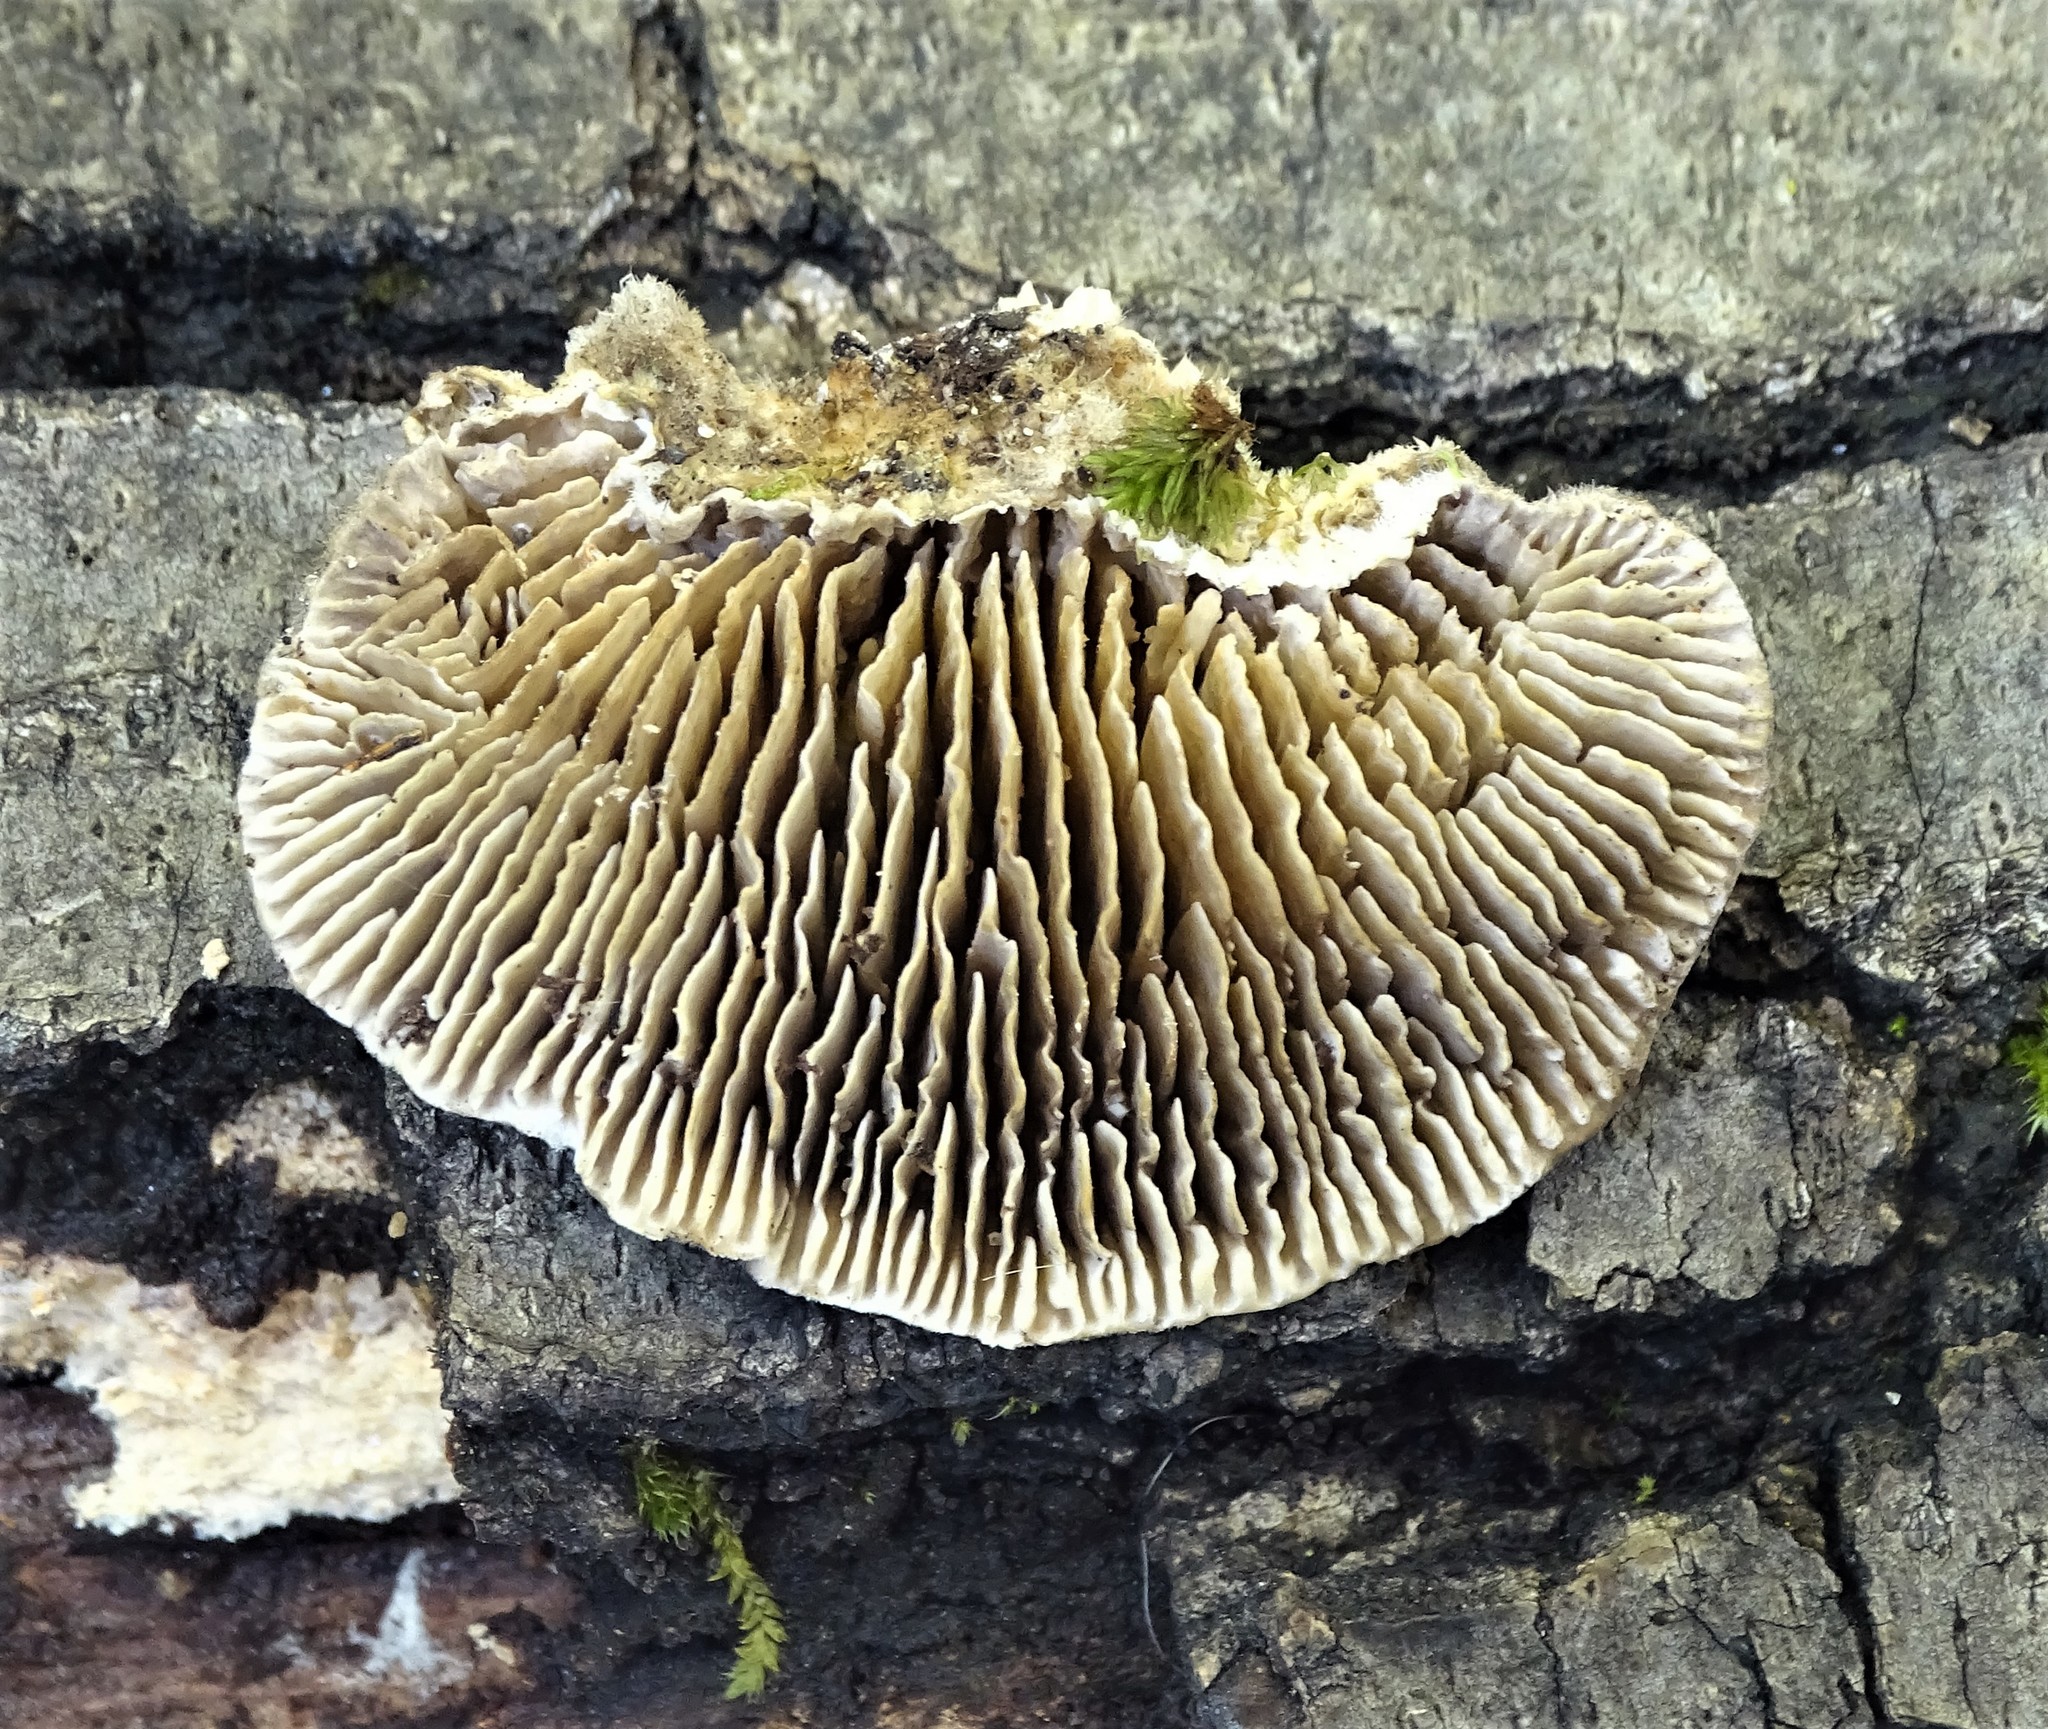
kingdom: Fungi
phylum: Basidiomycota
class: Agaricomycetes
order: Polyporales
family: Polyporaceae
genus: Lenzites
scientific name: Lenzites betulinus
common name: Birch mazegill
